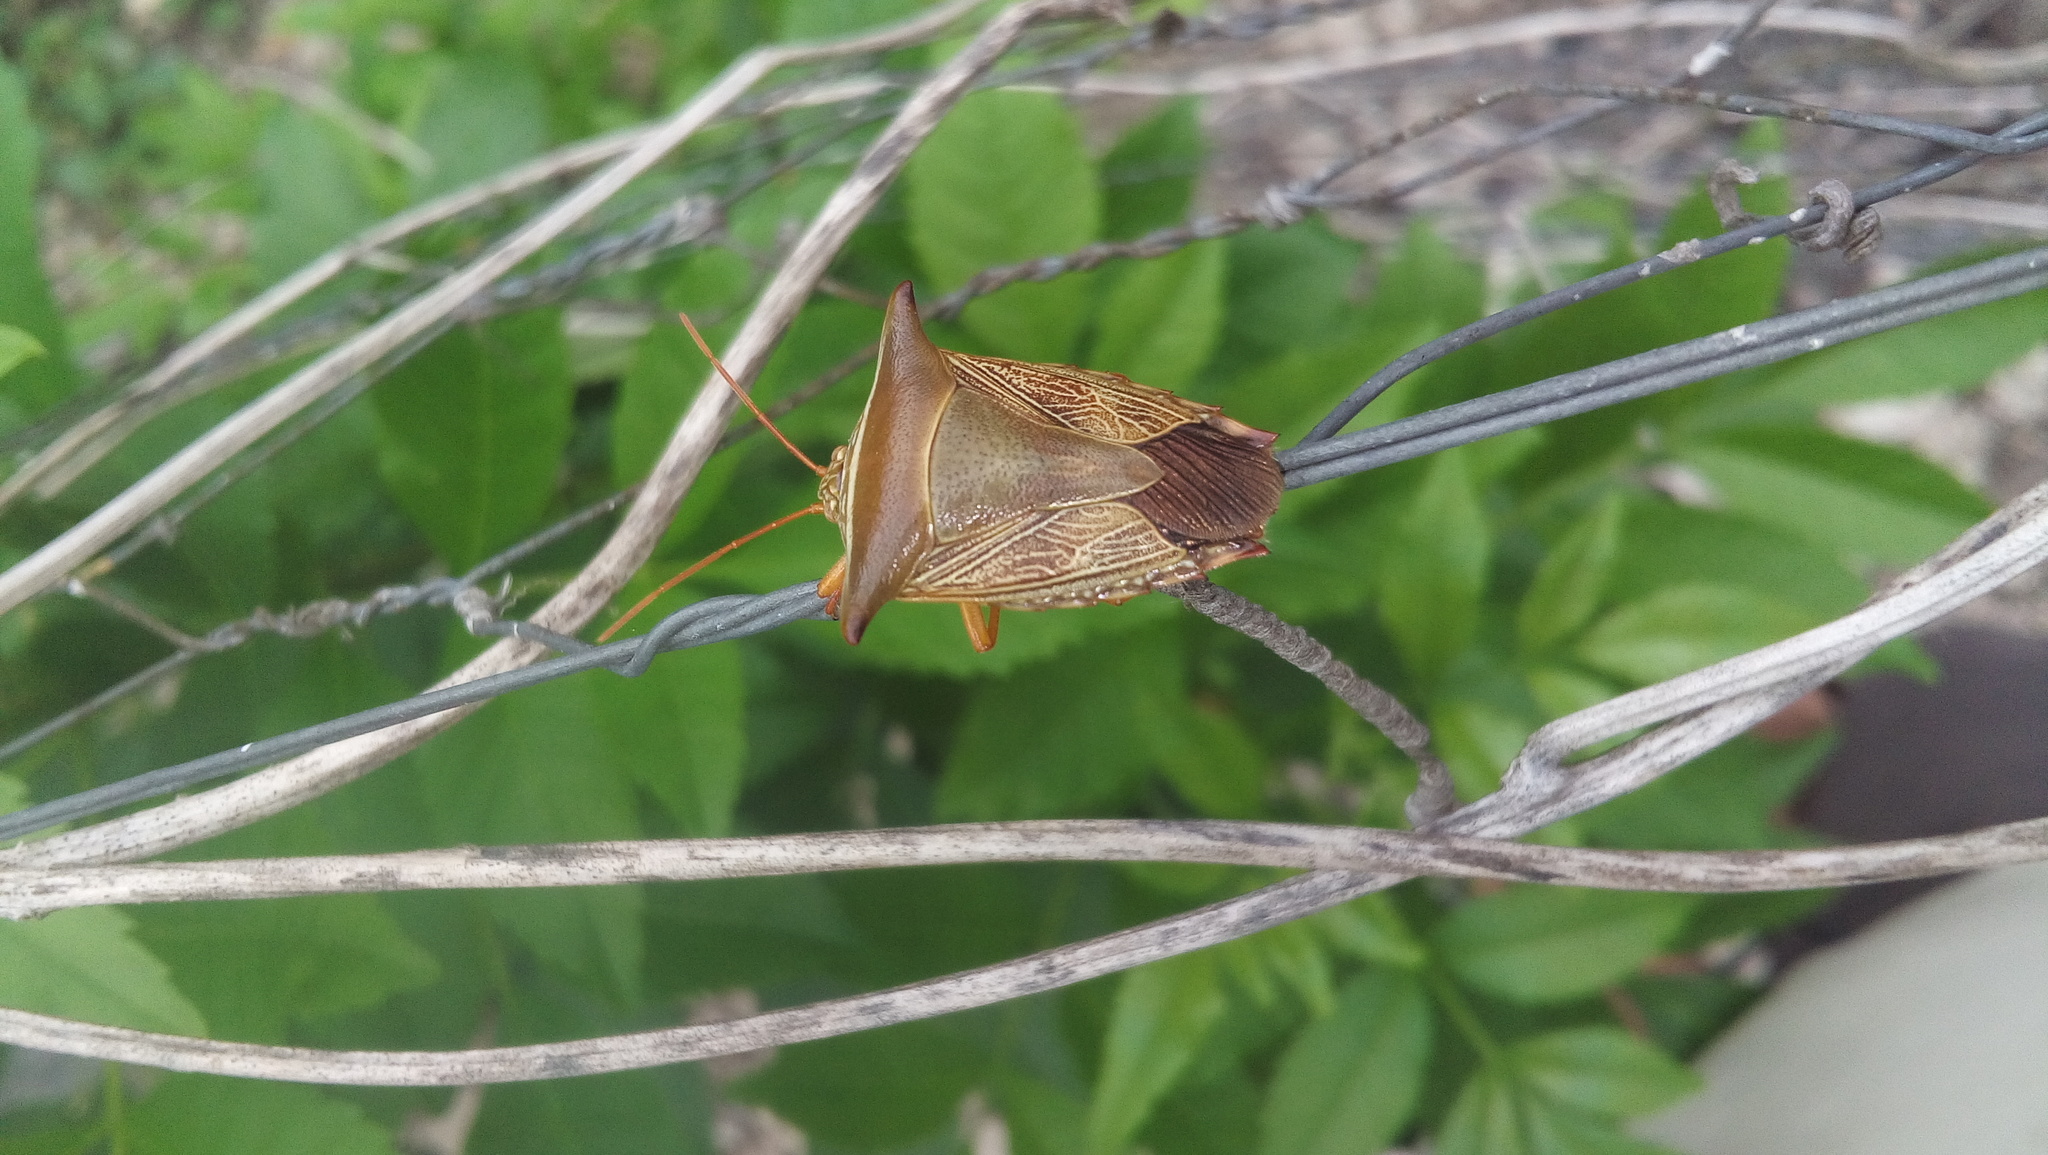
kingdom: Animalia
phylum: Arthropoda
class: Insecta
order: Hemiptera
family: Pentatomidae
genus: Edessa
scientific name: Edessa reticulata
